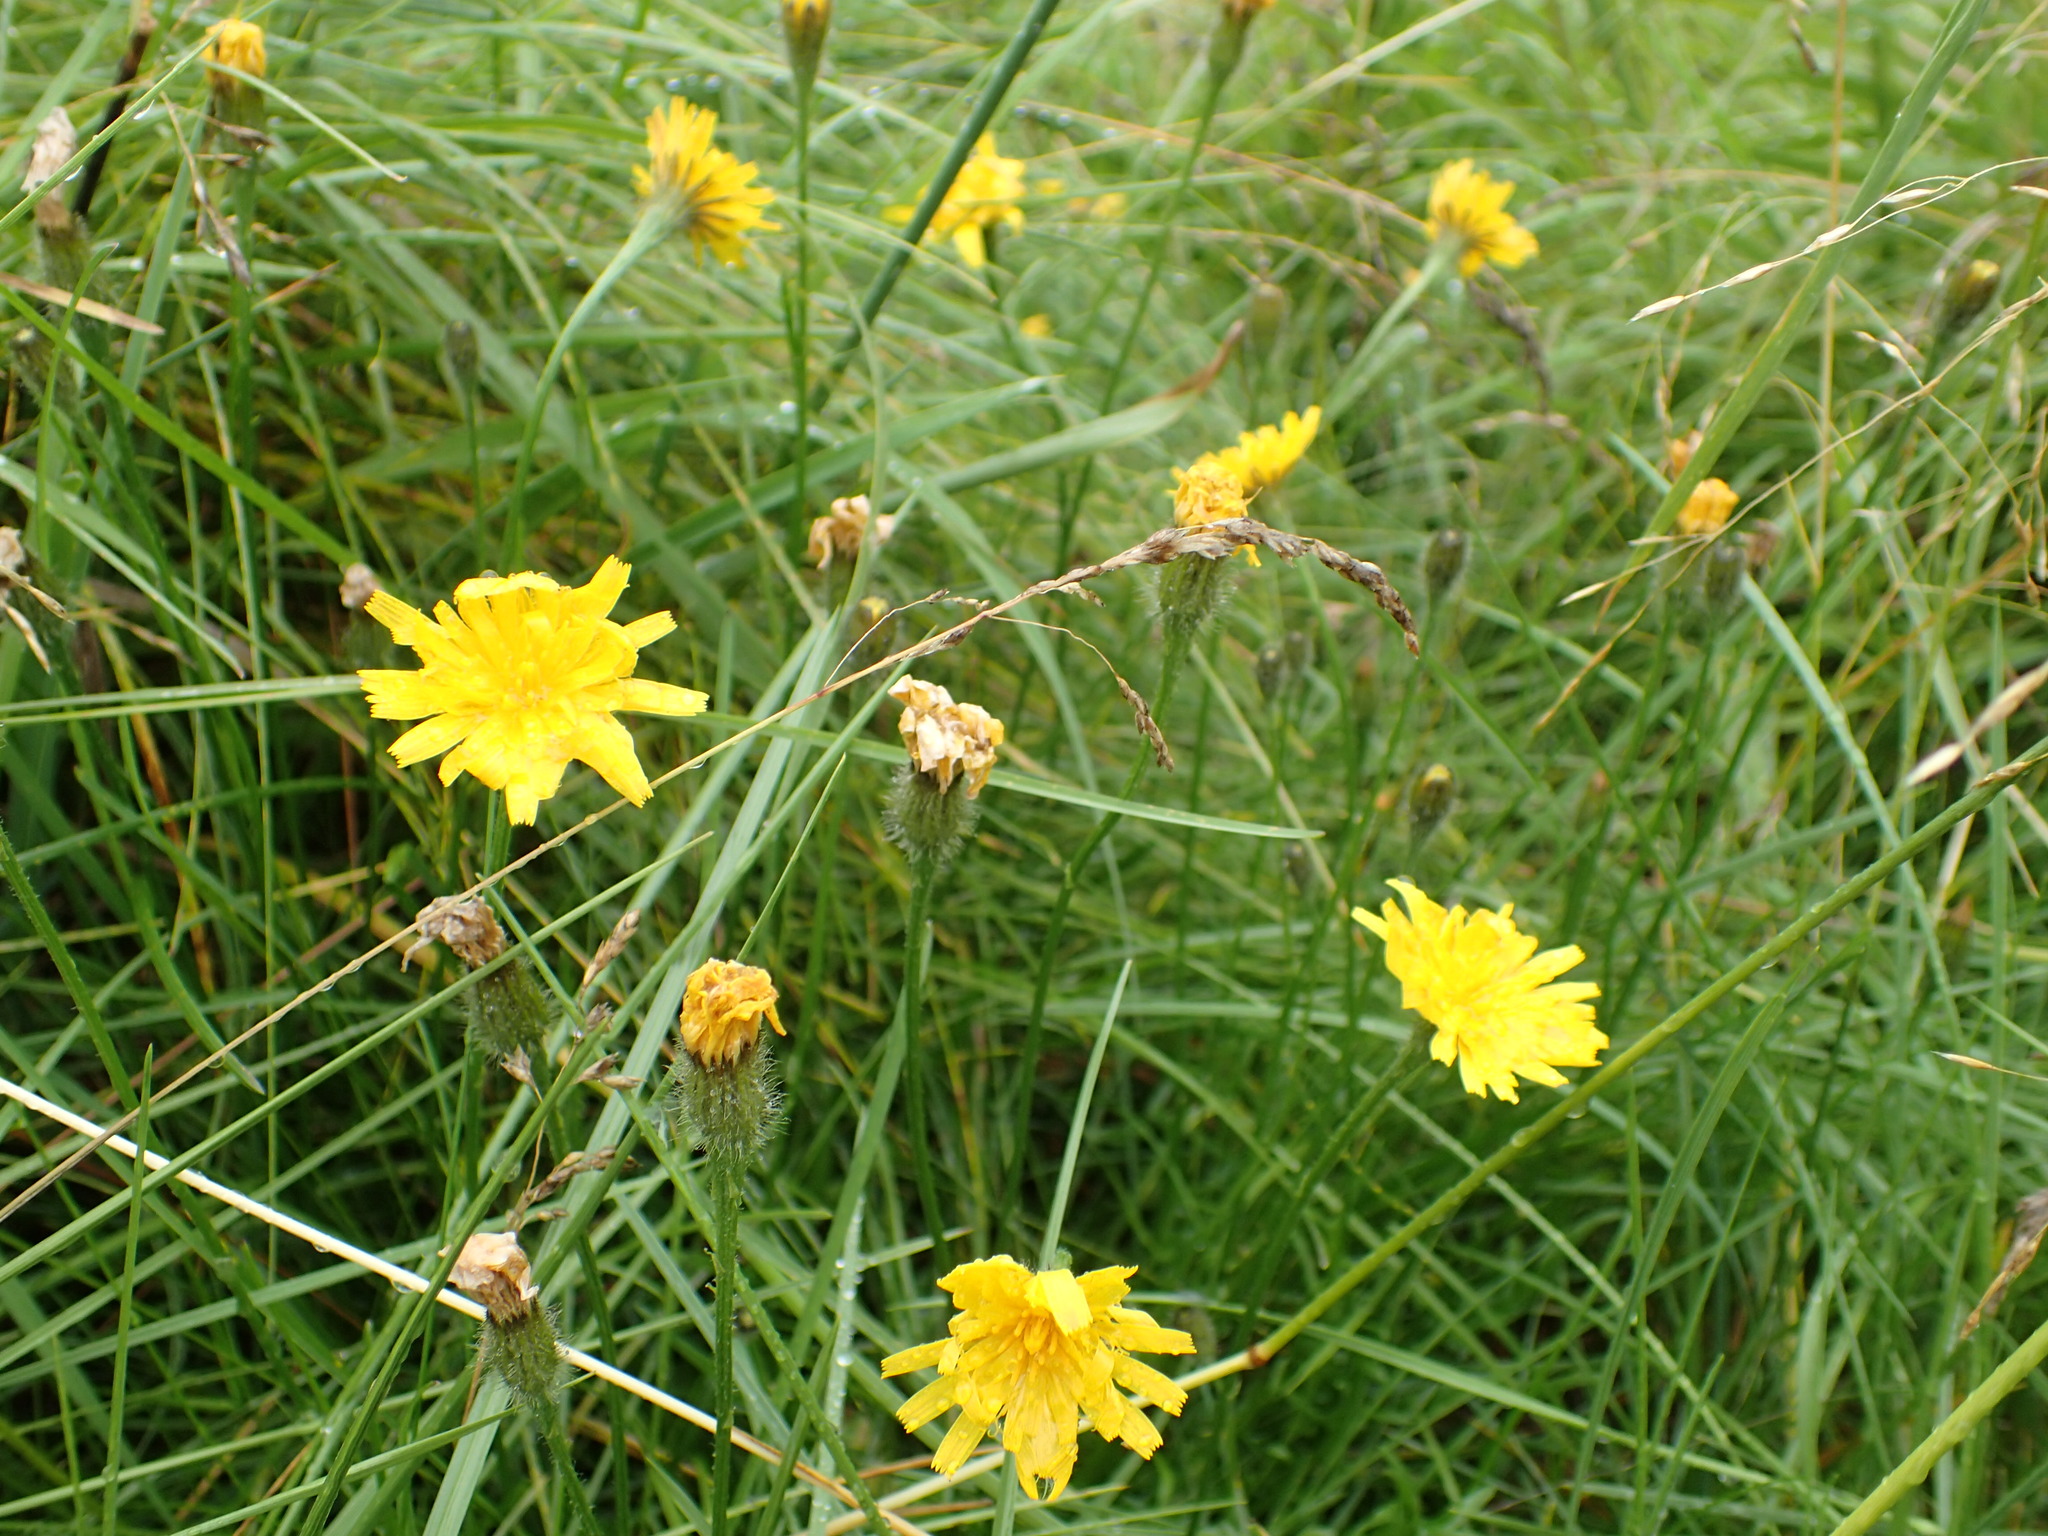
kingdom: Plantae
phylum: Tracheophyta
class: Magnoliopsida
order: Asterales
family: Asteraceae
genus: Scorzoneroides
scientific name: Scorzoneroides autumnalis
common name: Autumn hawkbit
